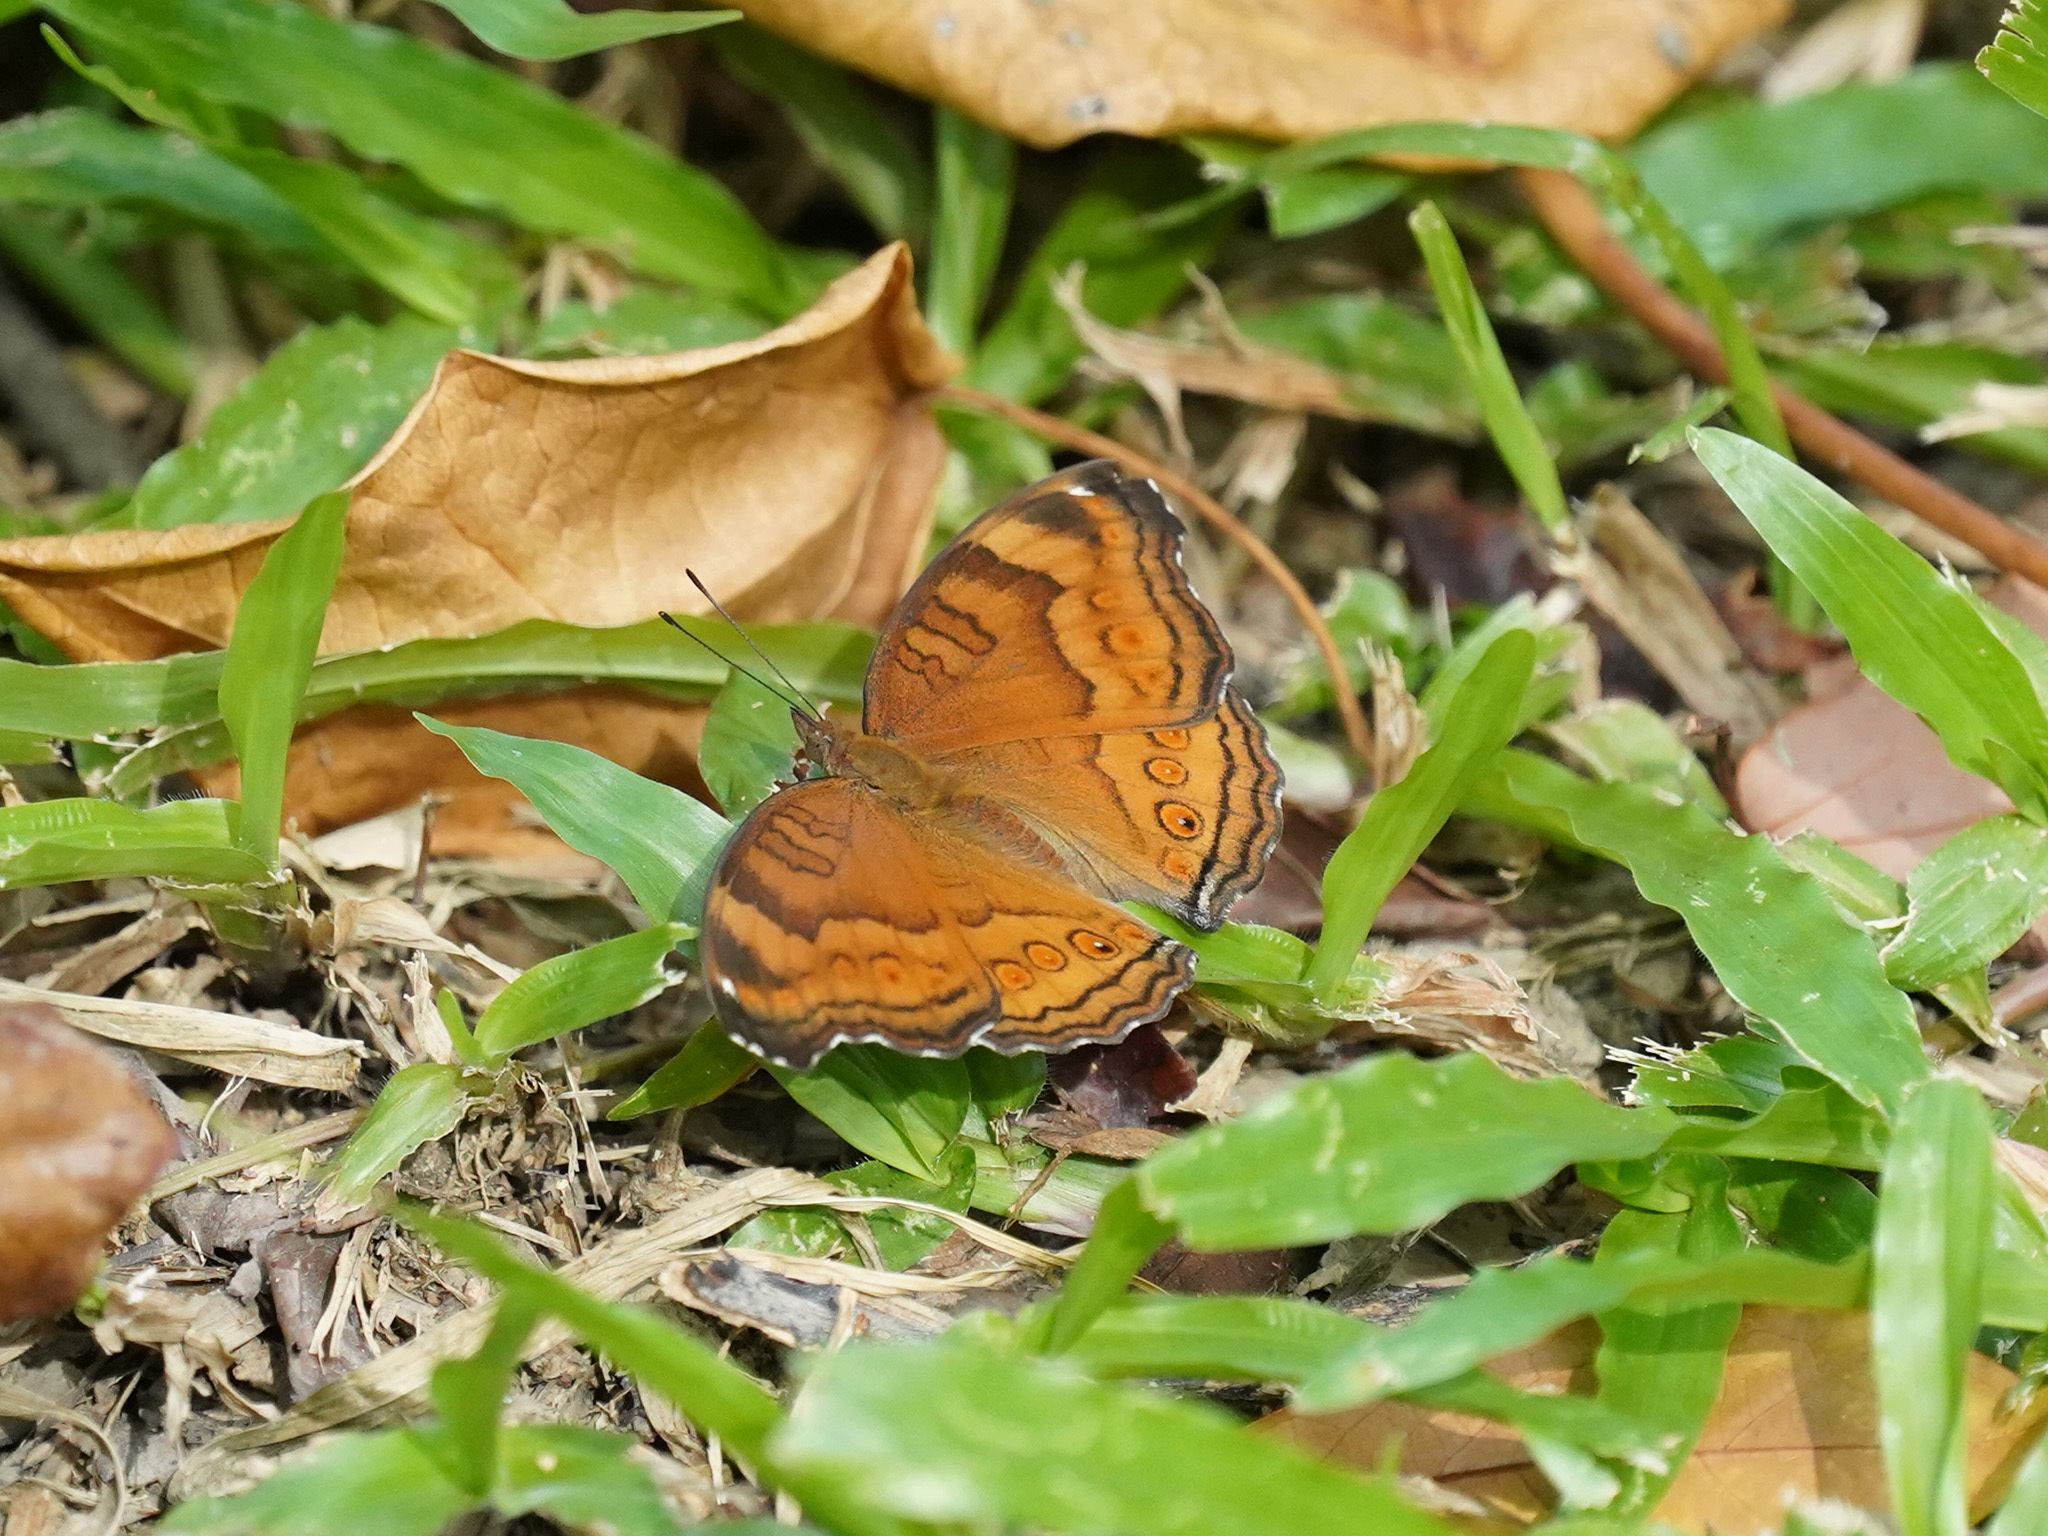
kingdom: Animalia
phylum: Arthropoda
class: Insecta
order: Lepidoptera
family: Nymphalidae
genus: Junonia
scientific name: Junonia hedonia
